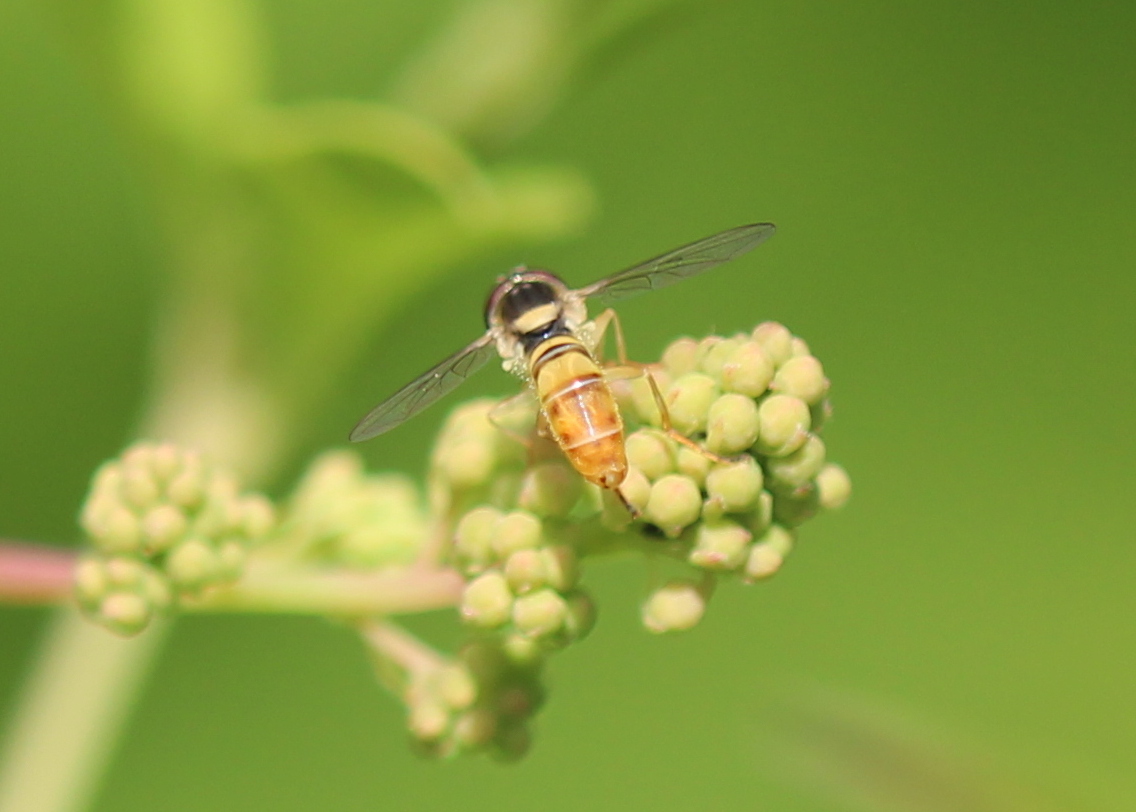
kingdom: Animalia
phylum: Arthropoda
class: Insecta
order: Diptera
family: Syrphidae
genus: Sphaerophoria
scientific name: Sphaerophoria contigua
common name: Tufted globetail
